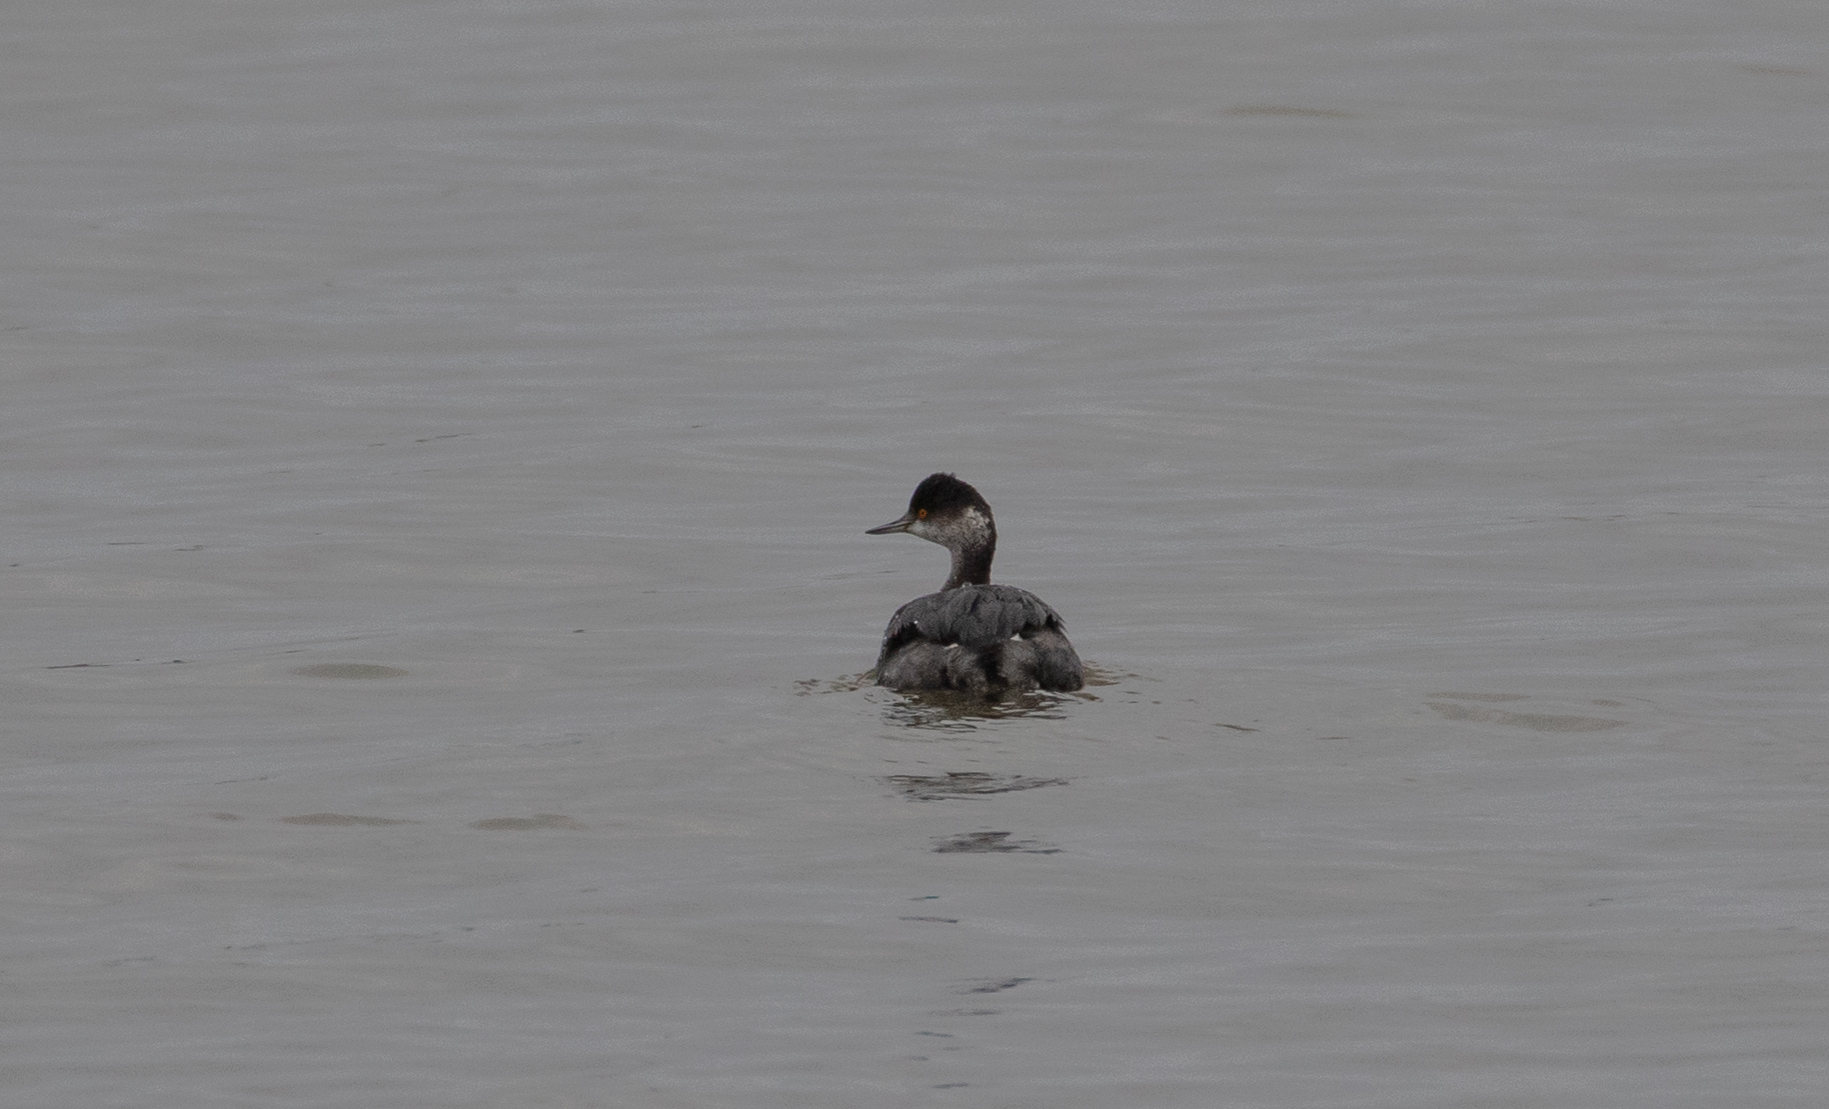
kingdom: Animalia
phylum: Chordata
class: Aves
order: Podicipediformes
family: Podicipedidae
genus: Podiceps
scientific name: Podiceps nigricollis
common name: Black-necked grebe
